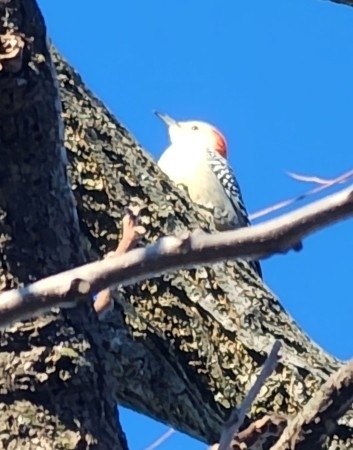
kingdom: Animalia
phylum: Chordata
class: Aves
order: Piciformes
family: Picidae
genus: Melanerpes
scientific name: Melanerpes carolinus
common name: Red-bellied woodpecker
